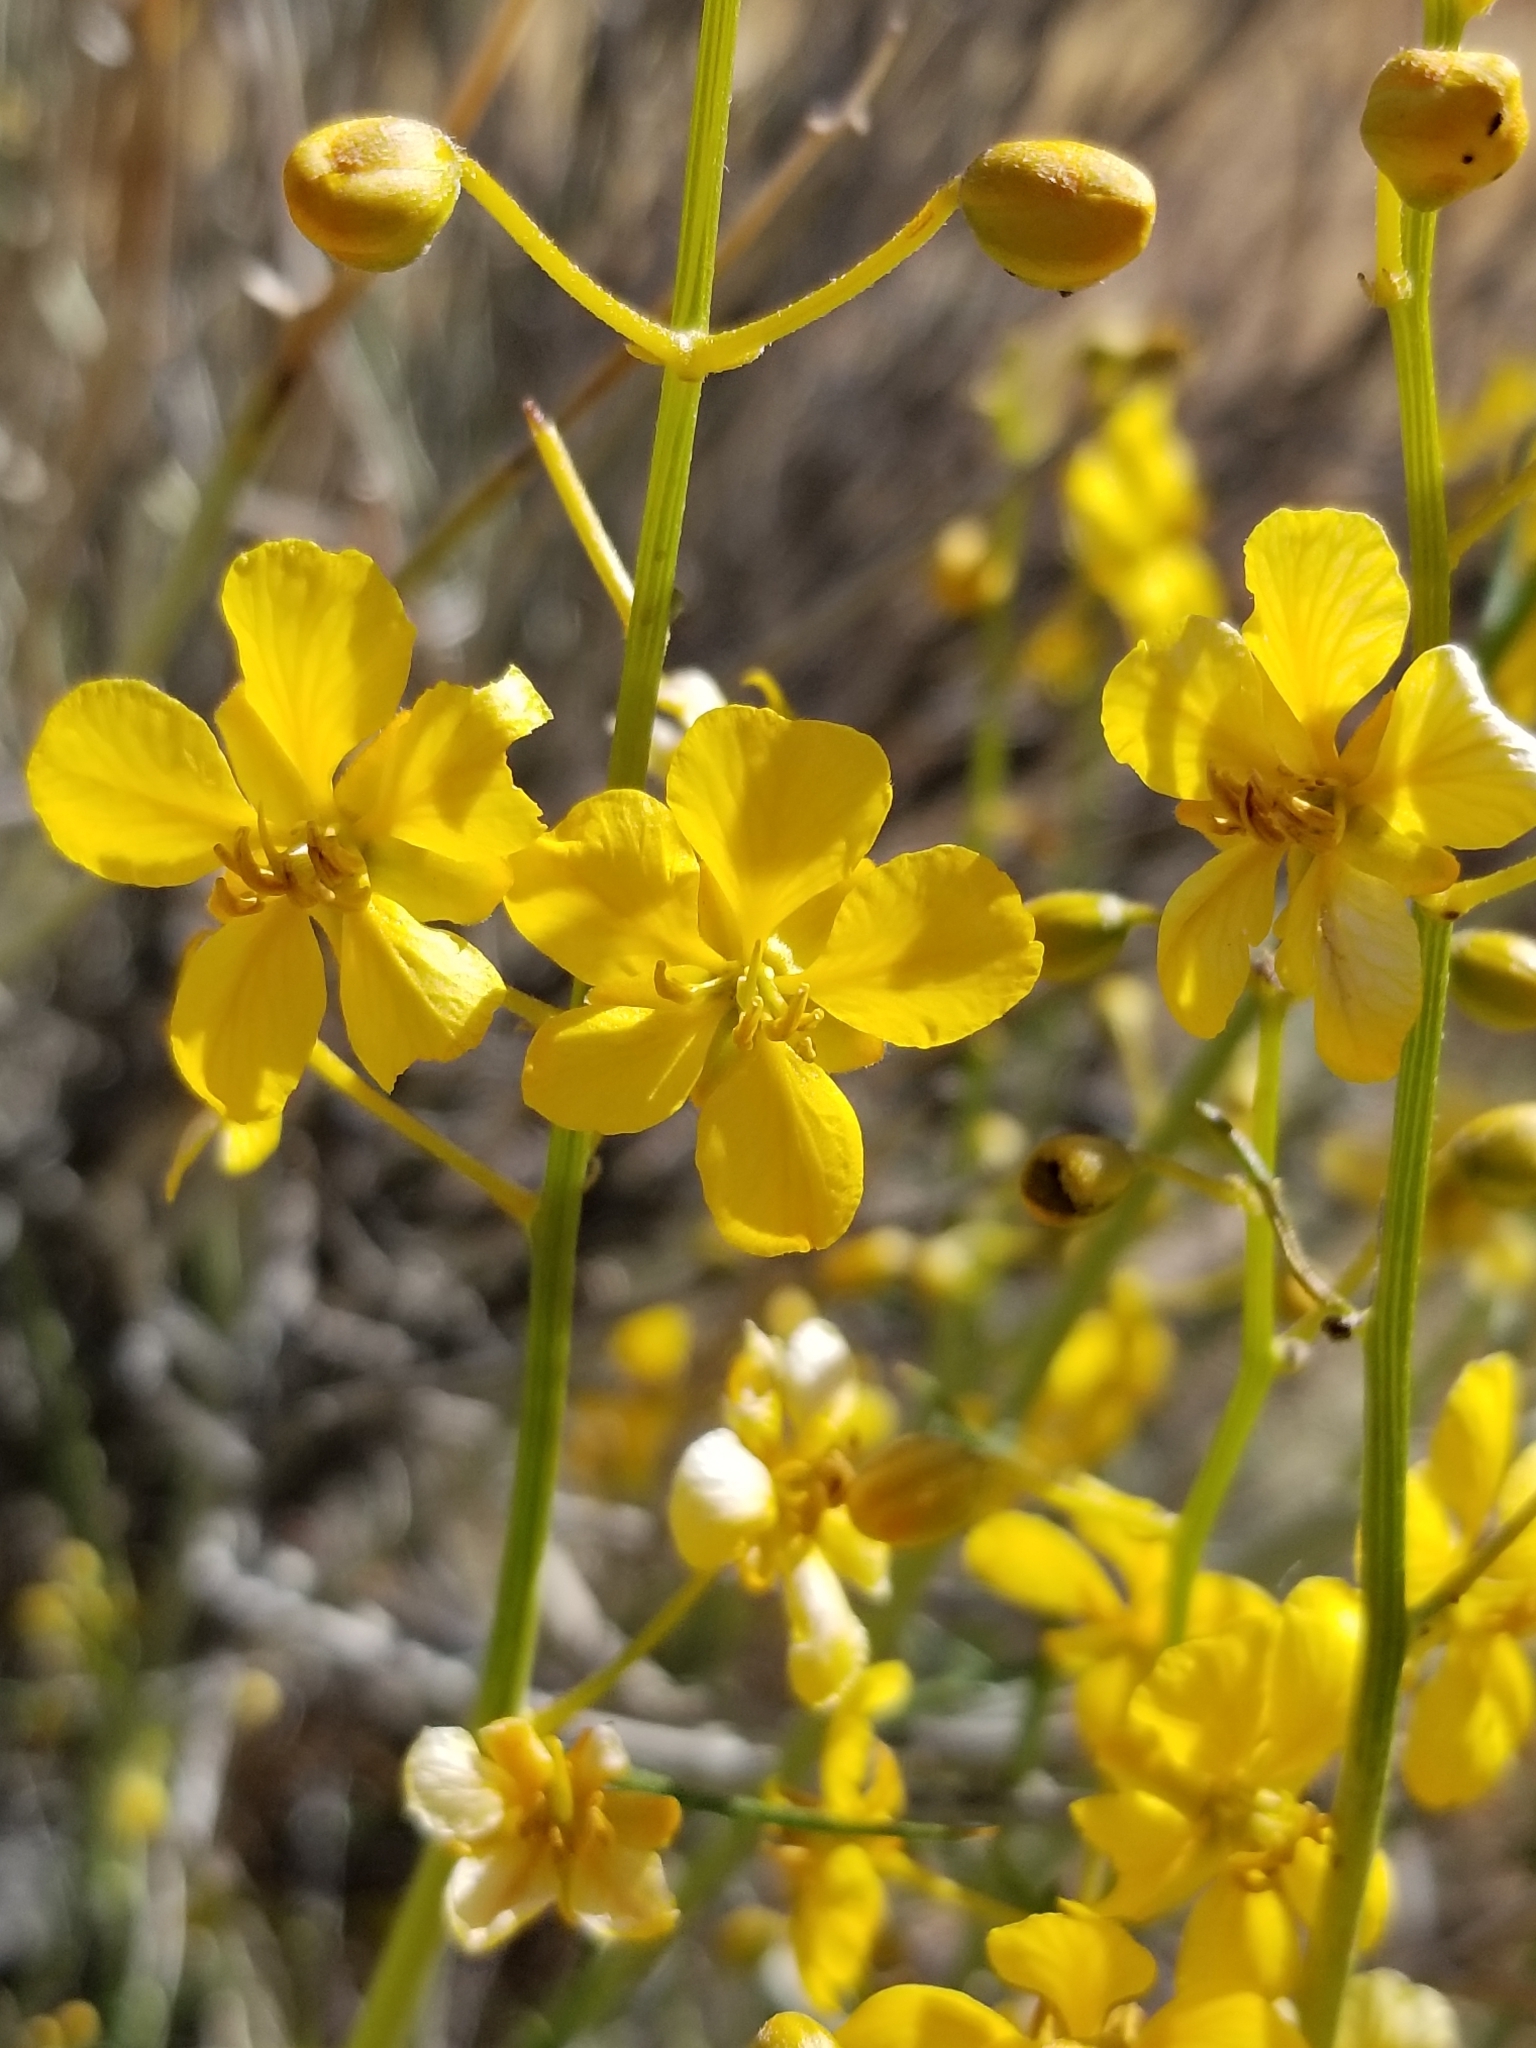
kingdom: Plantae
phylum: Tracheophyta
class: Magnoliopsida
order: Fabales
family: Fabaceae
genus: Senna
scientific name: Senna armata
